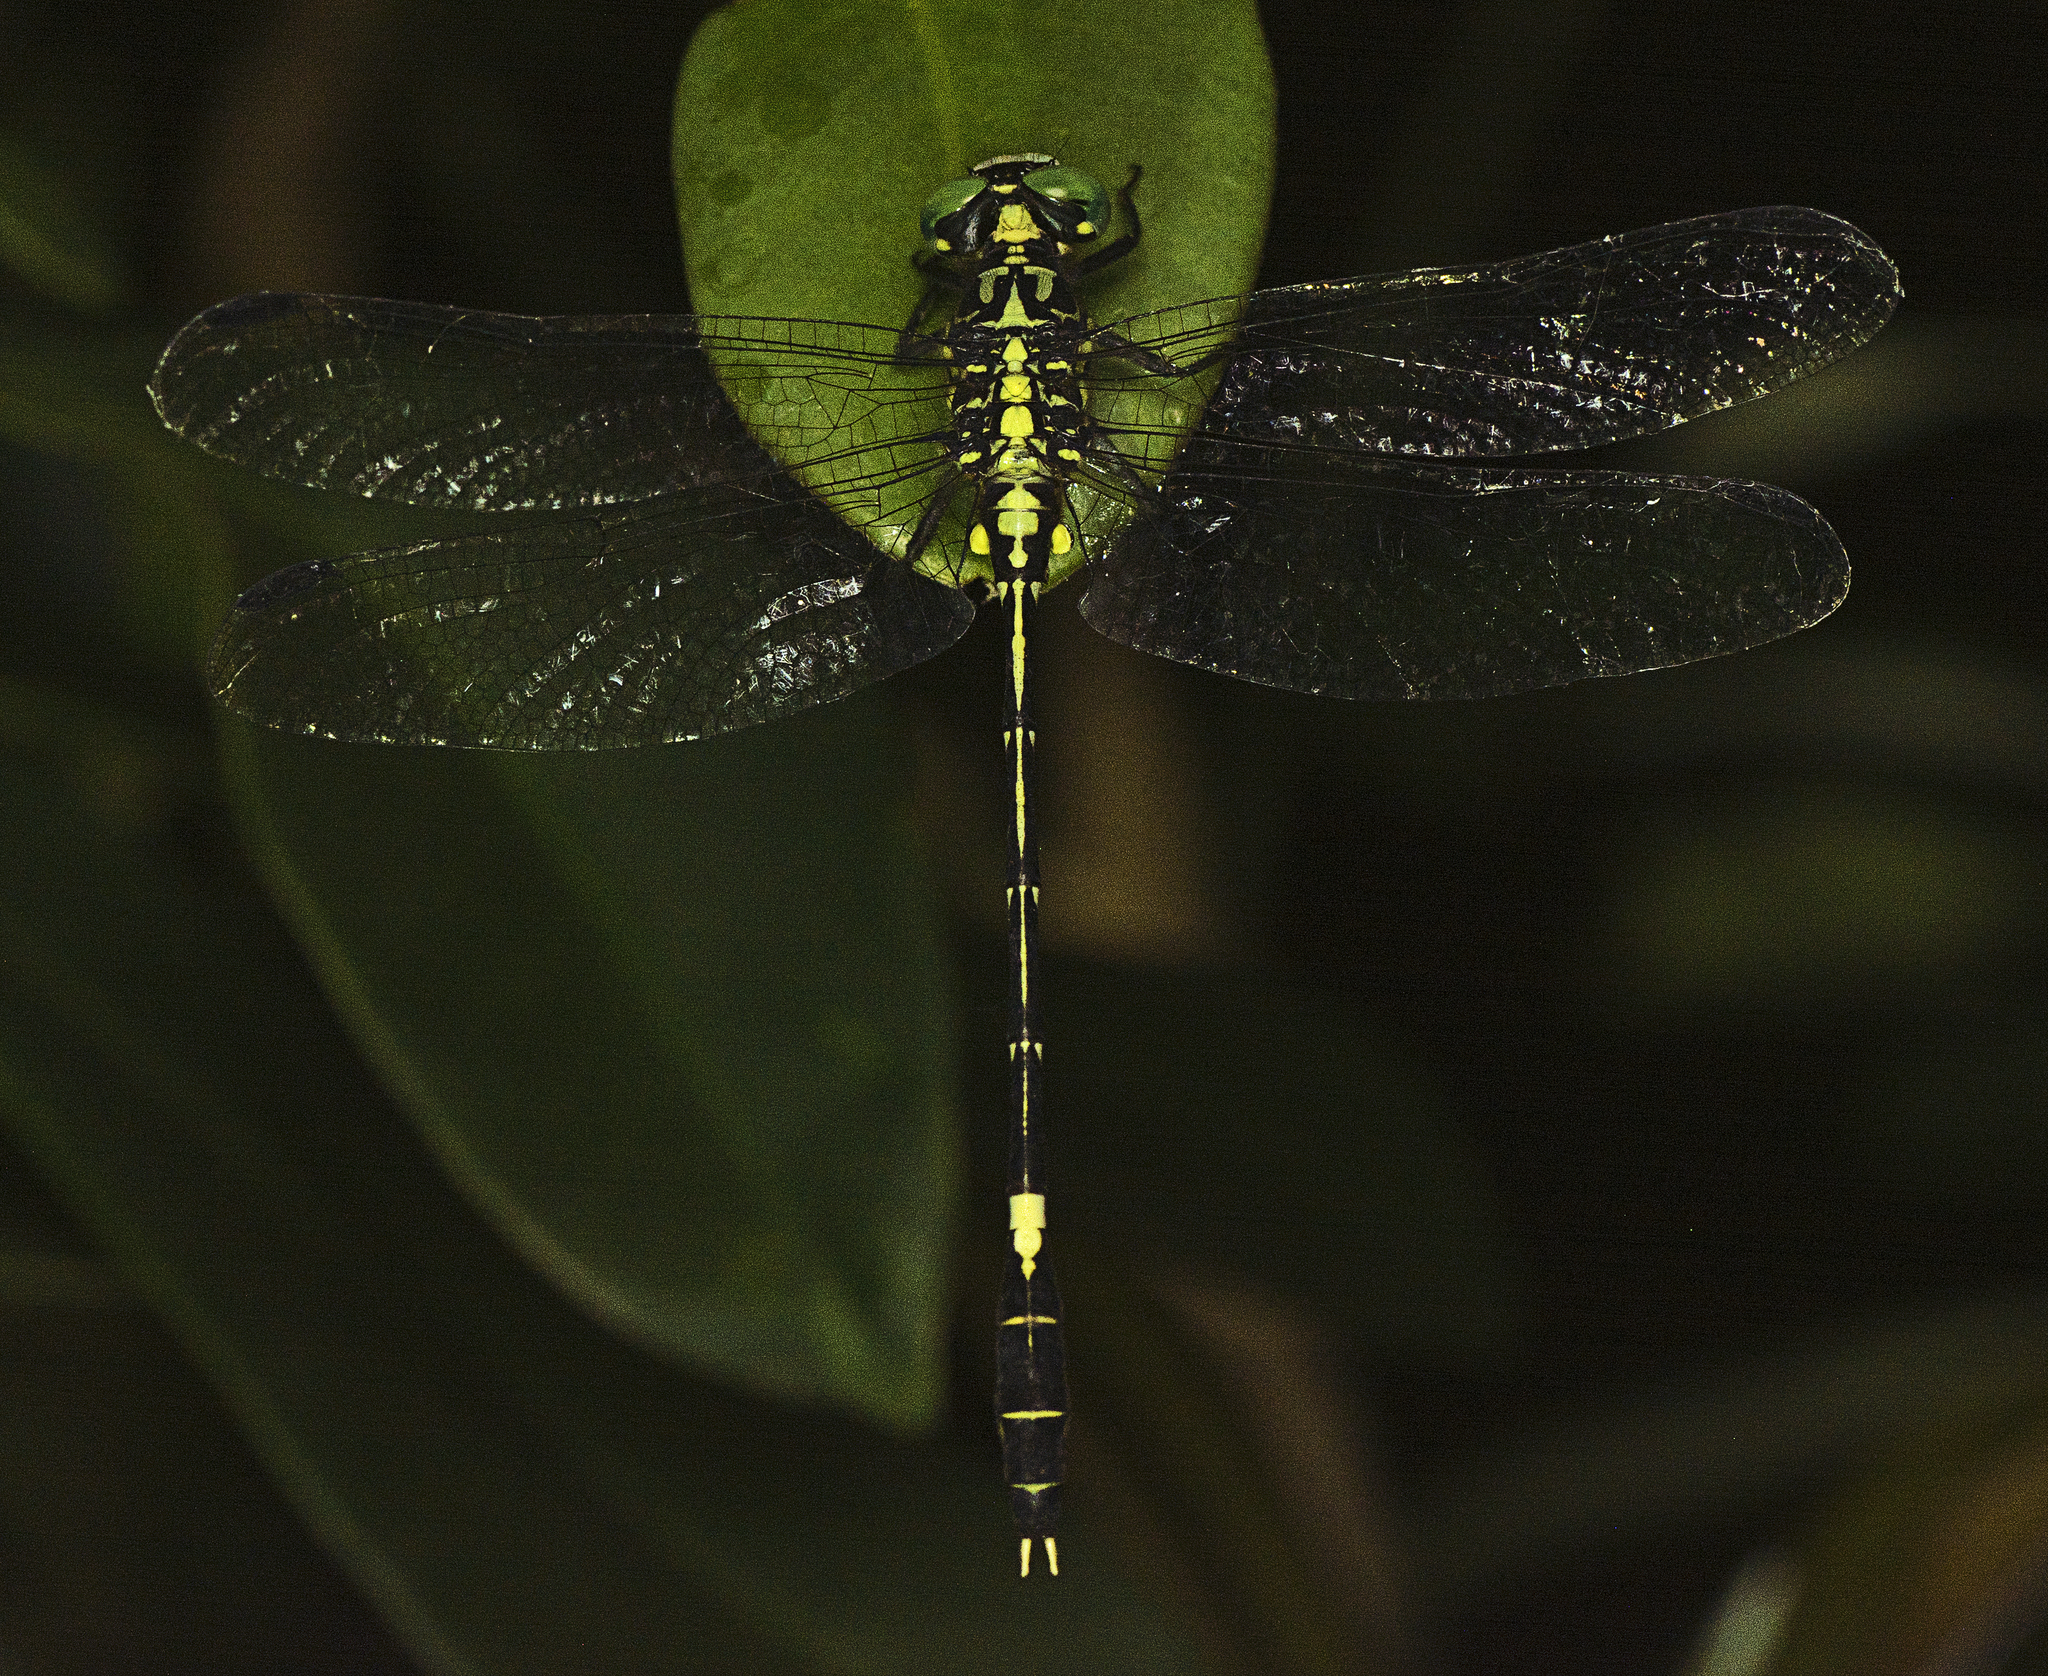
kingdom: Animalia
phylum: Arthropoda
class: Insecta
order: Odonata
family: Gomphidae
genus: Austrogomphus
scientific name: Austrogomphus amphiclitus
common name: Pale hunter
